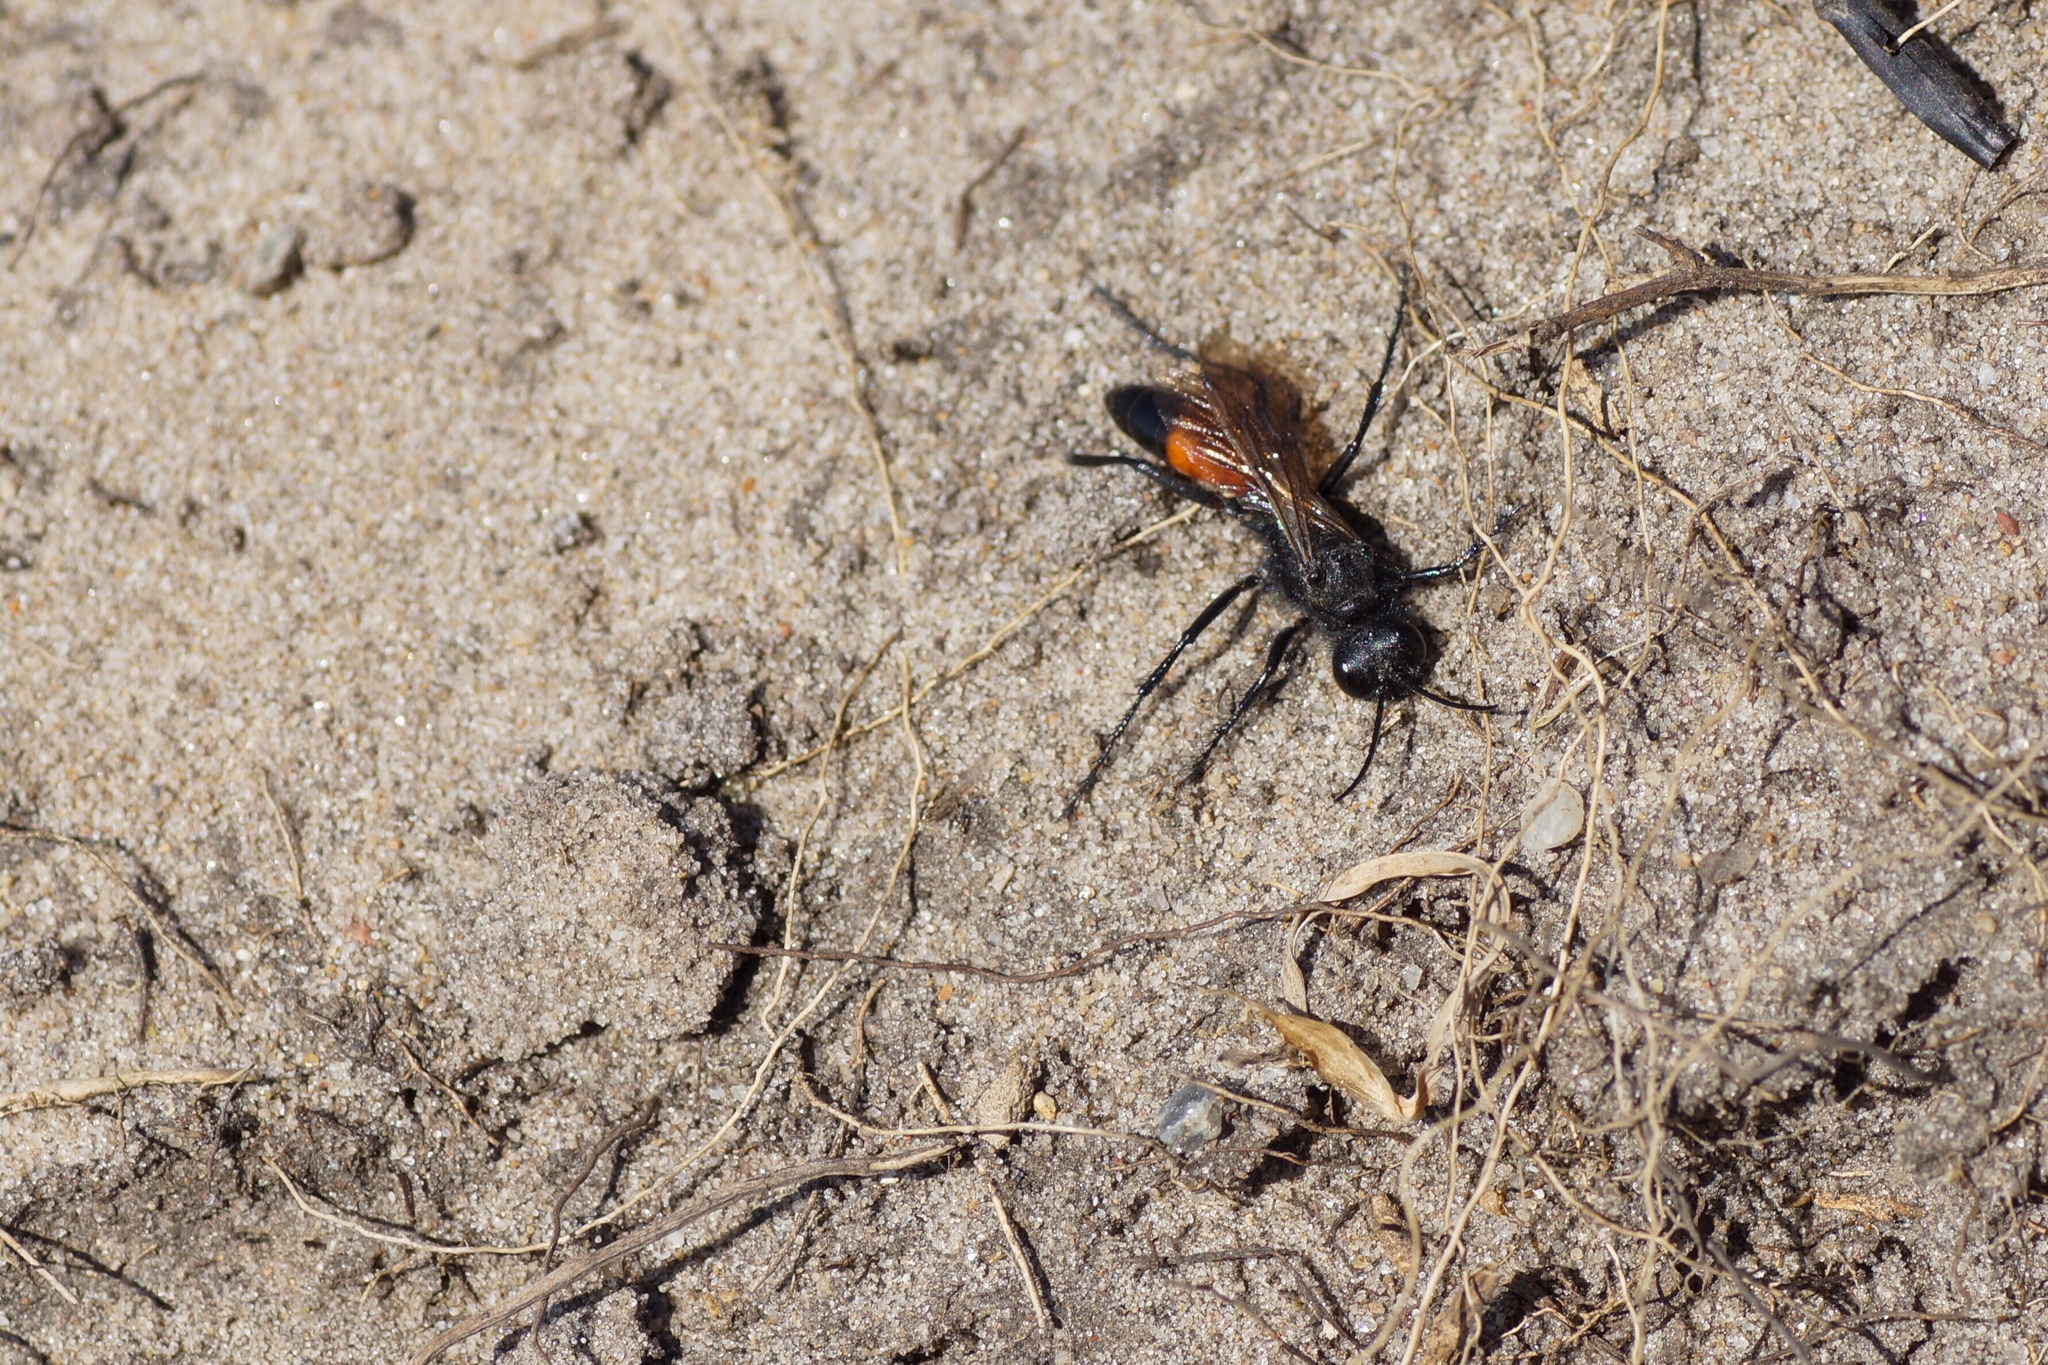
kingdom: Animalia
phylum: Arthropoda
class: Insecta
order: Hymenoptera
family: Sphecidae
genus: Podalonia
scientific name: Podalonia hirsuta
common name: Hairy sand wasp
